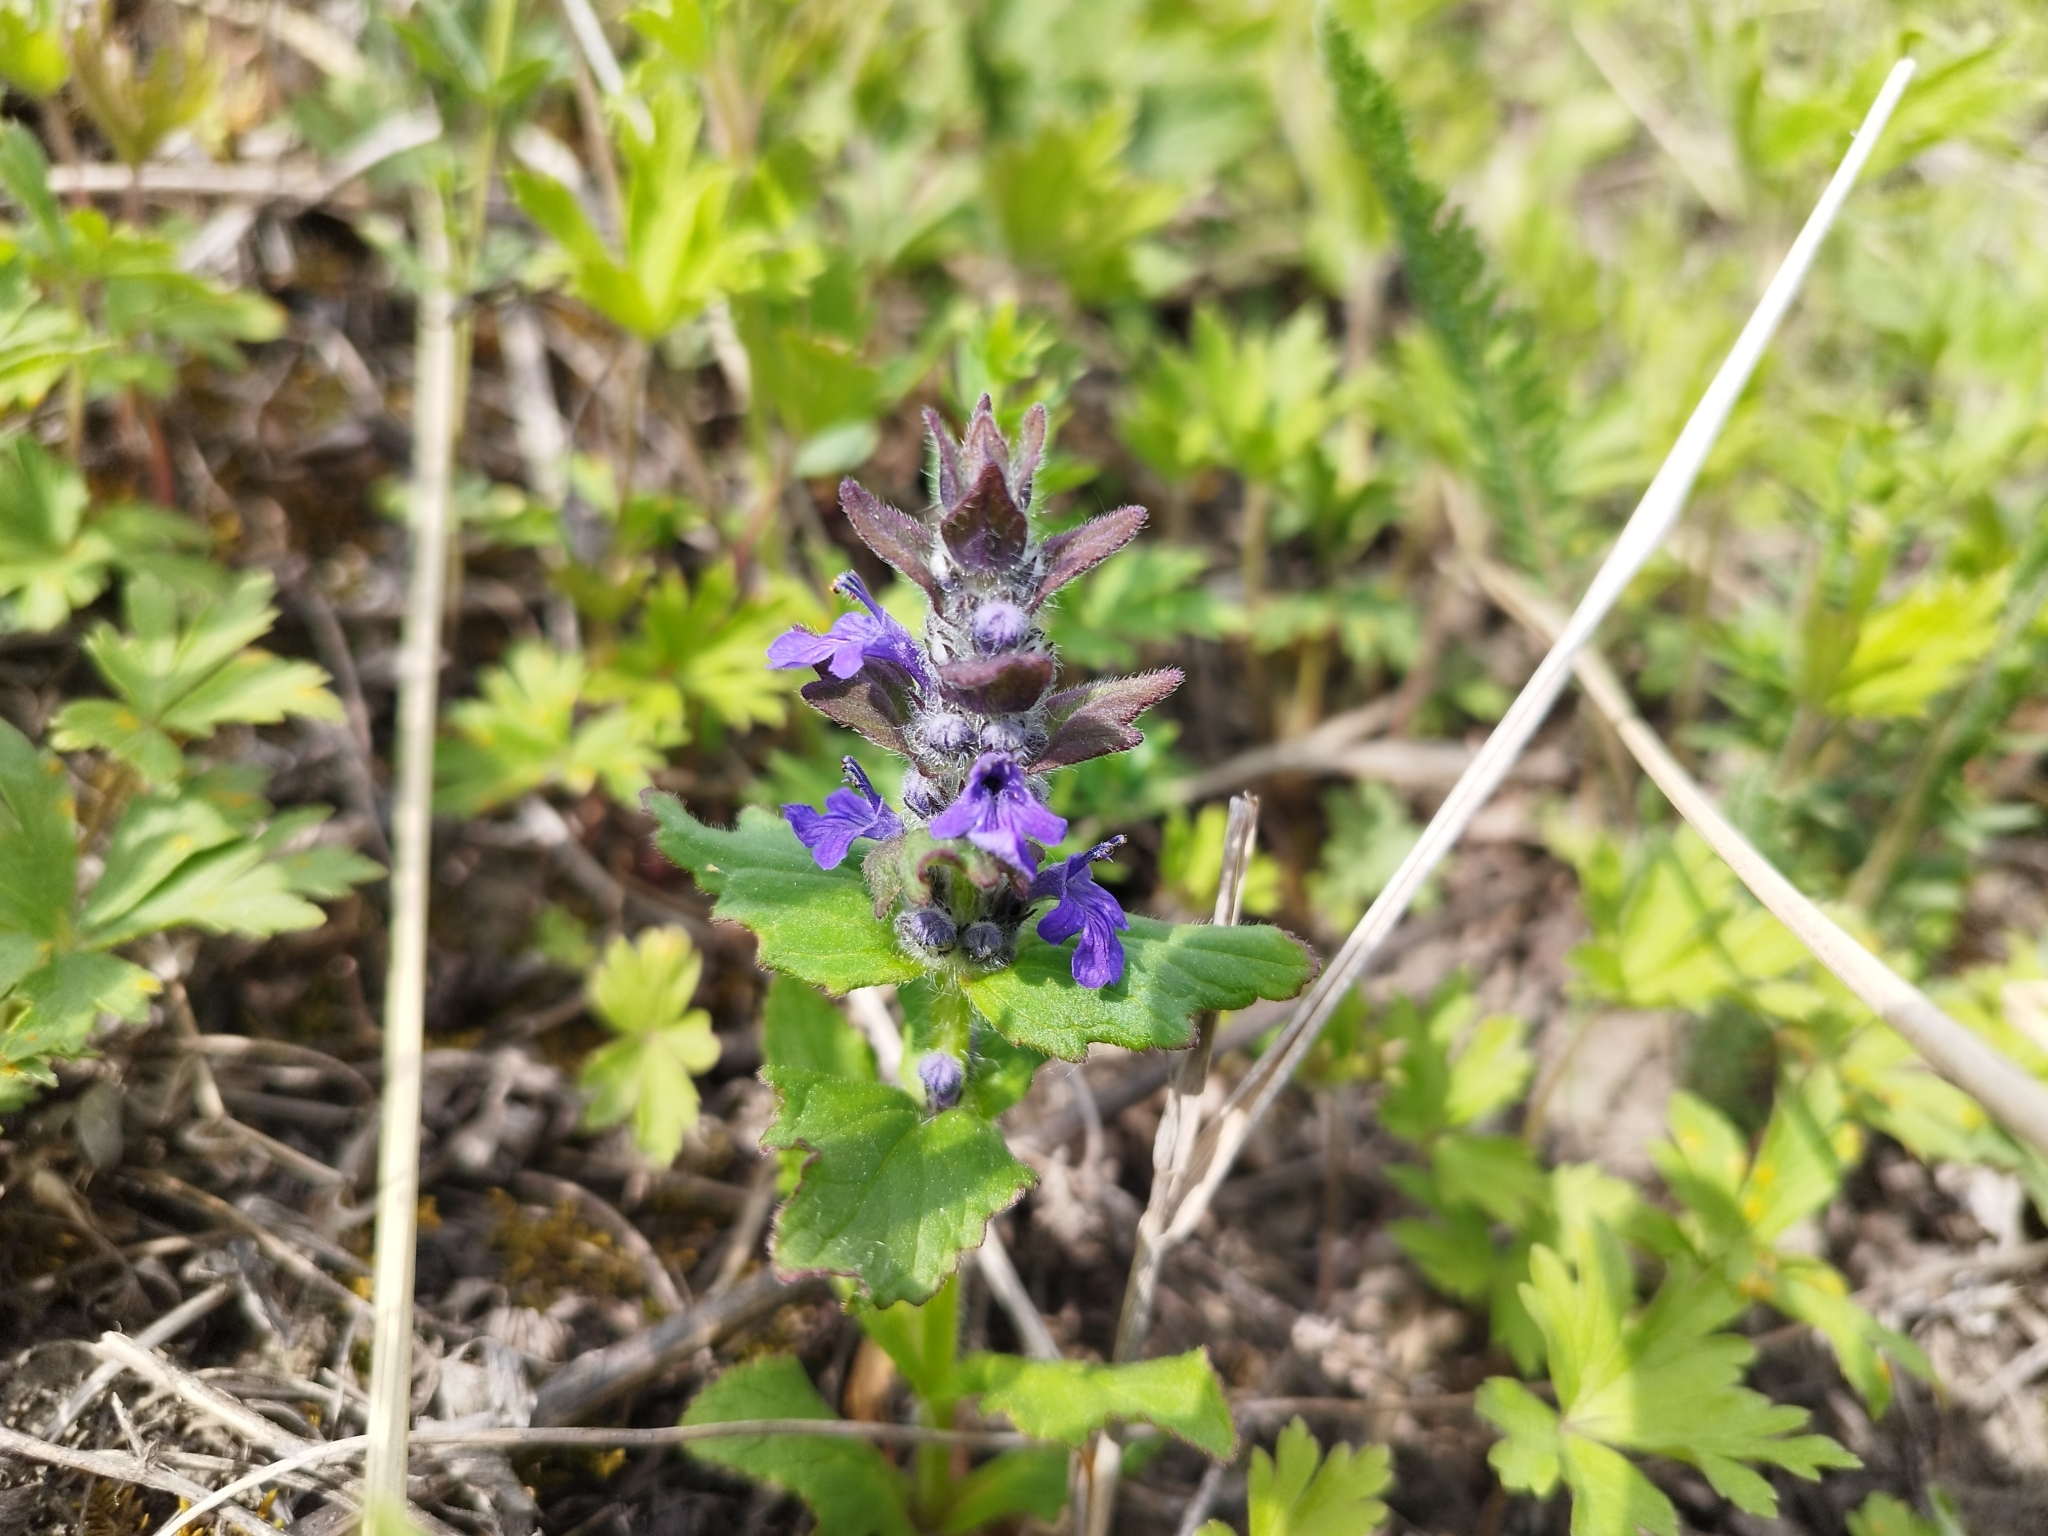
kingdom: Plantae
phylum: Tracheophyta
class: Magnoliopsida
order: Lamiales
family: Lamiaceae
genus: Ajuga
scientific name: Ajuga genevensis
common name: Blue bugle
